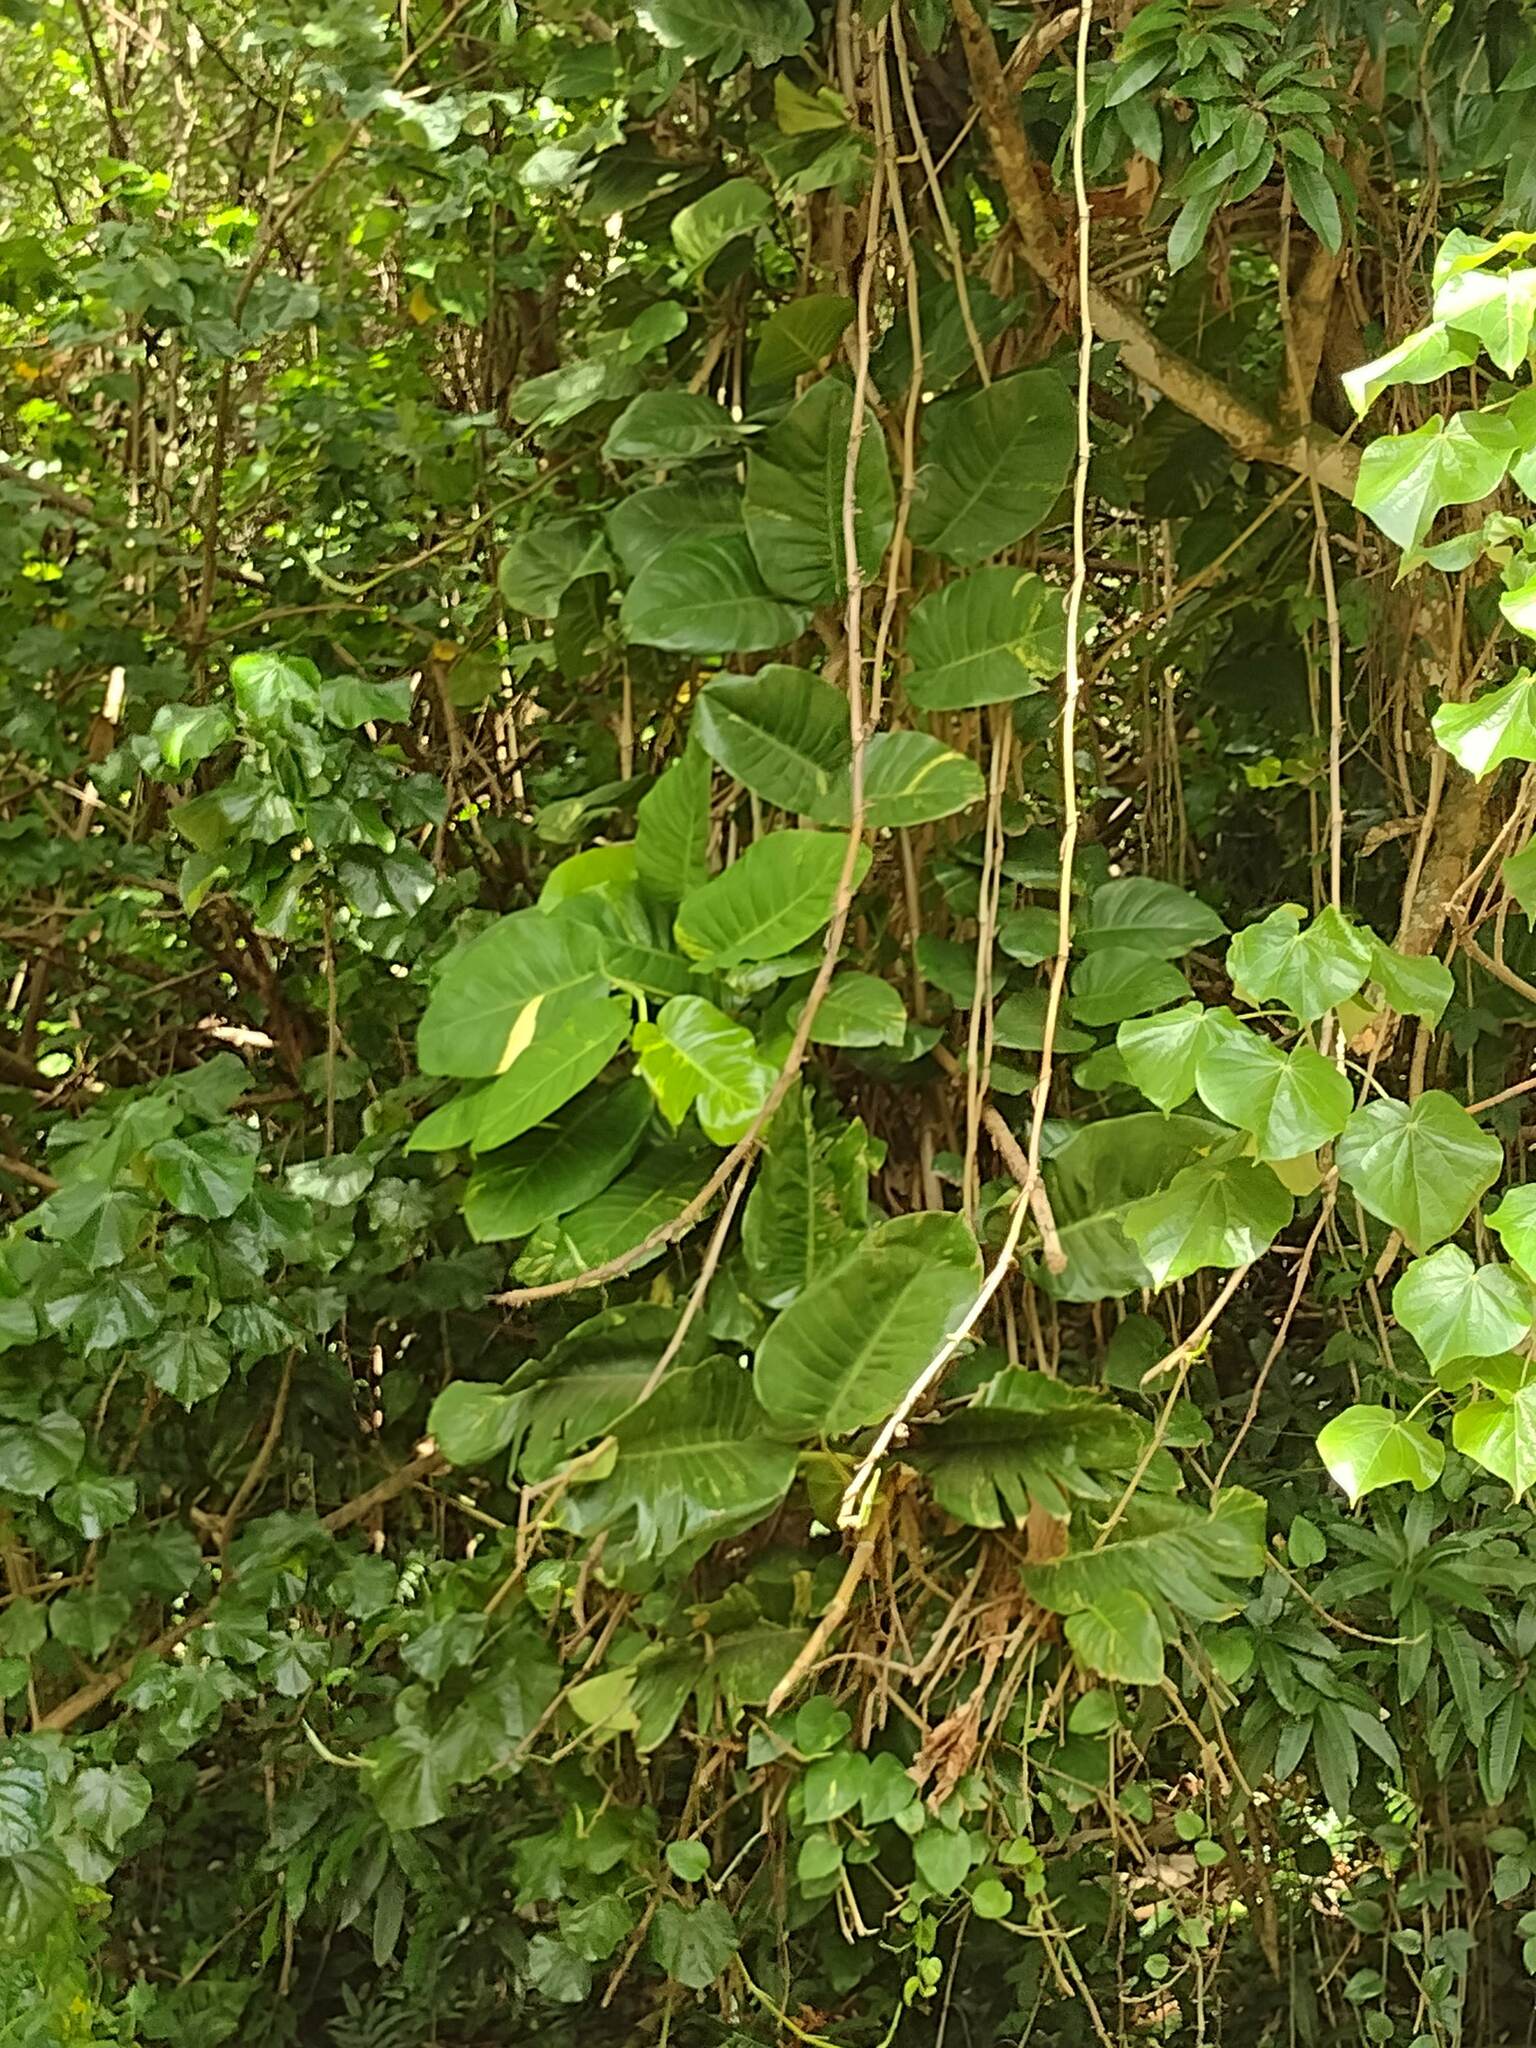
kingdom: Plantae
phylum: Tracheophyta
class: Liliopsida
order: Alismatales
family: Araceae
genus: Epipremnum
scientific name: Epipremnum aureum
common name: Golden hunter's-robe
